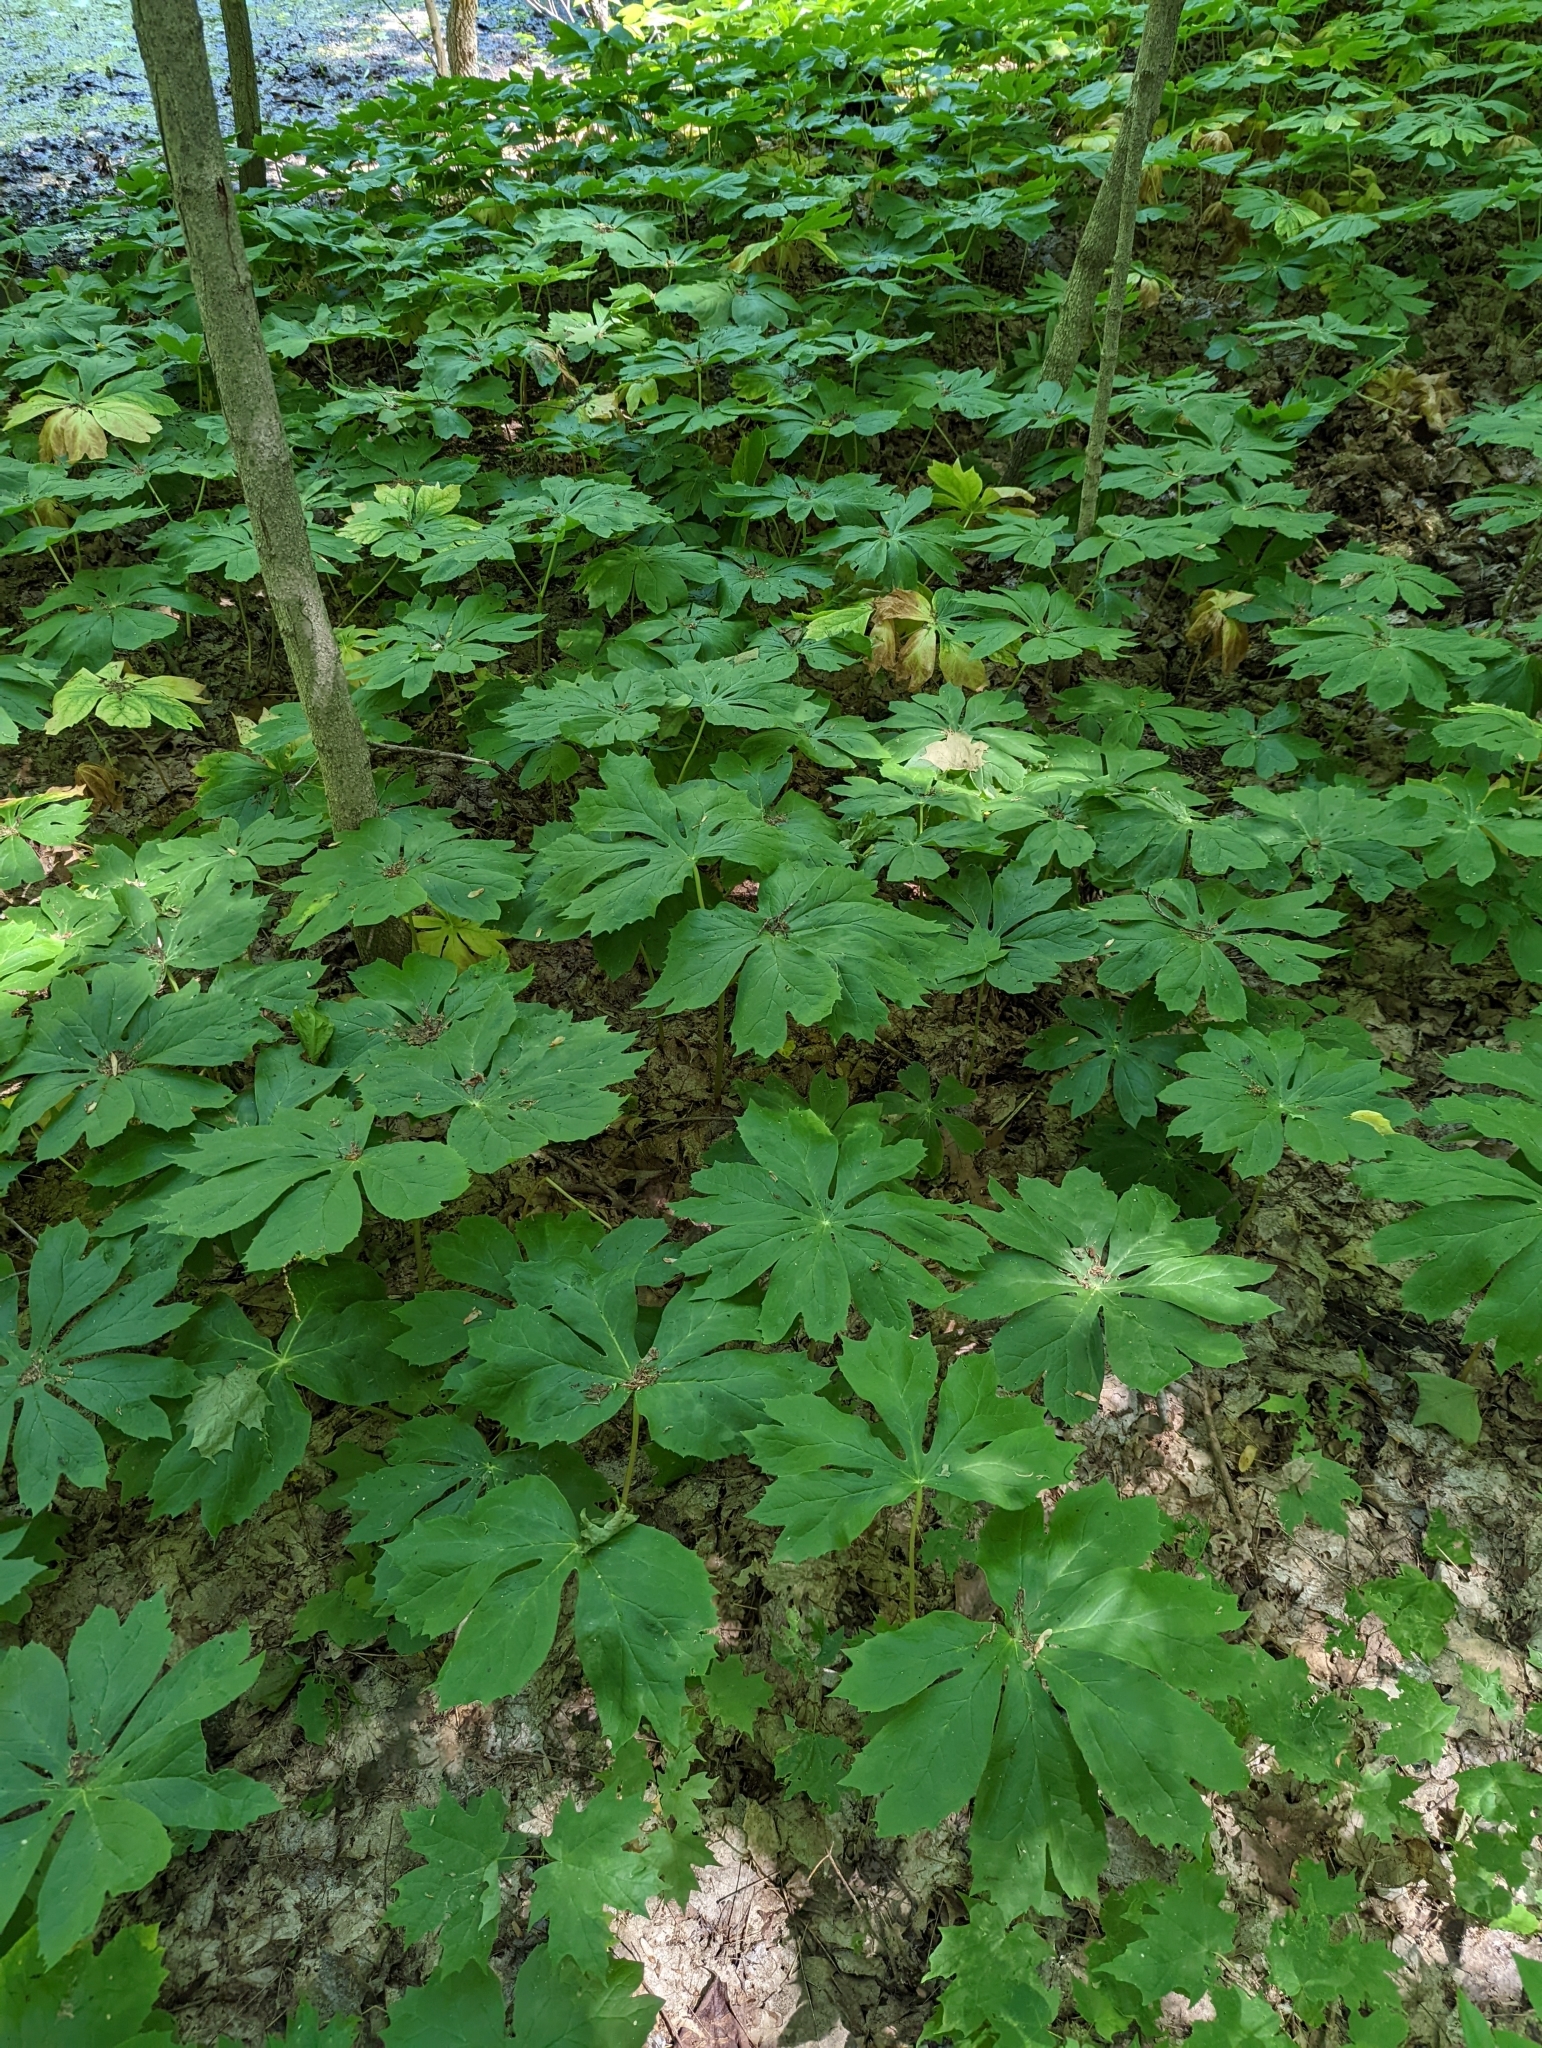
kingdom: Plantae
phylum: Tracheophyta
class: Magnoliopsida
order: Ranunculales
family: Berberidaceae
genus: Podophyllum
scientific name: Podophyllum peltatum
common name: Wild mandrake
